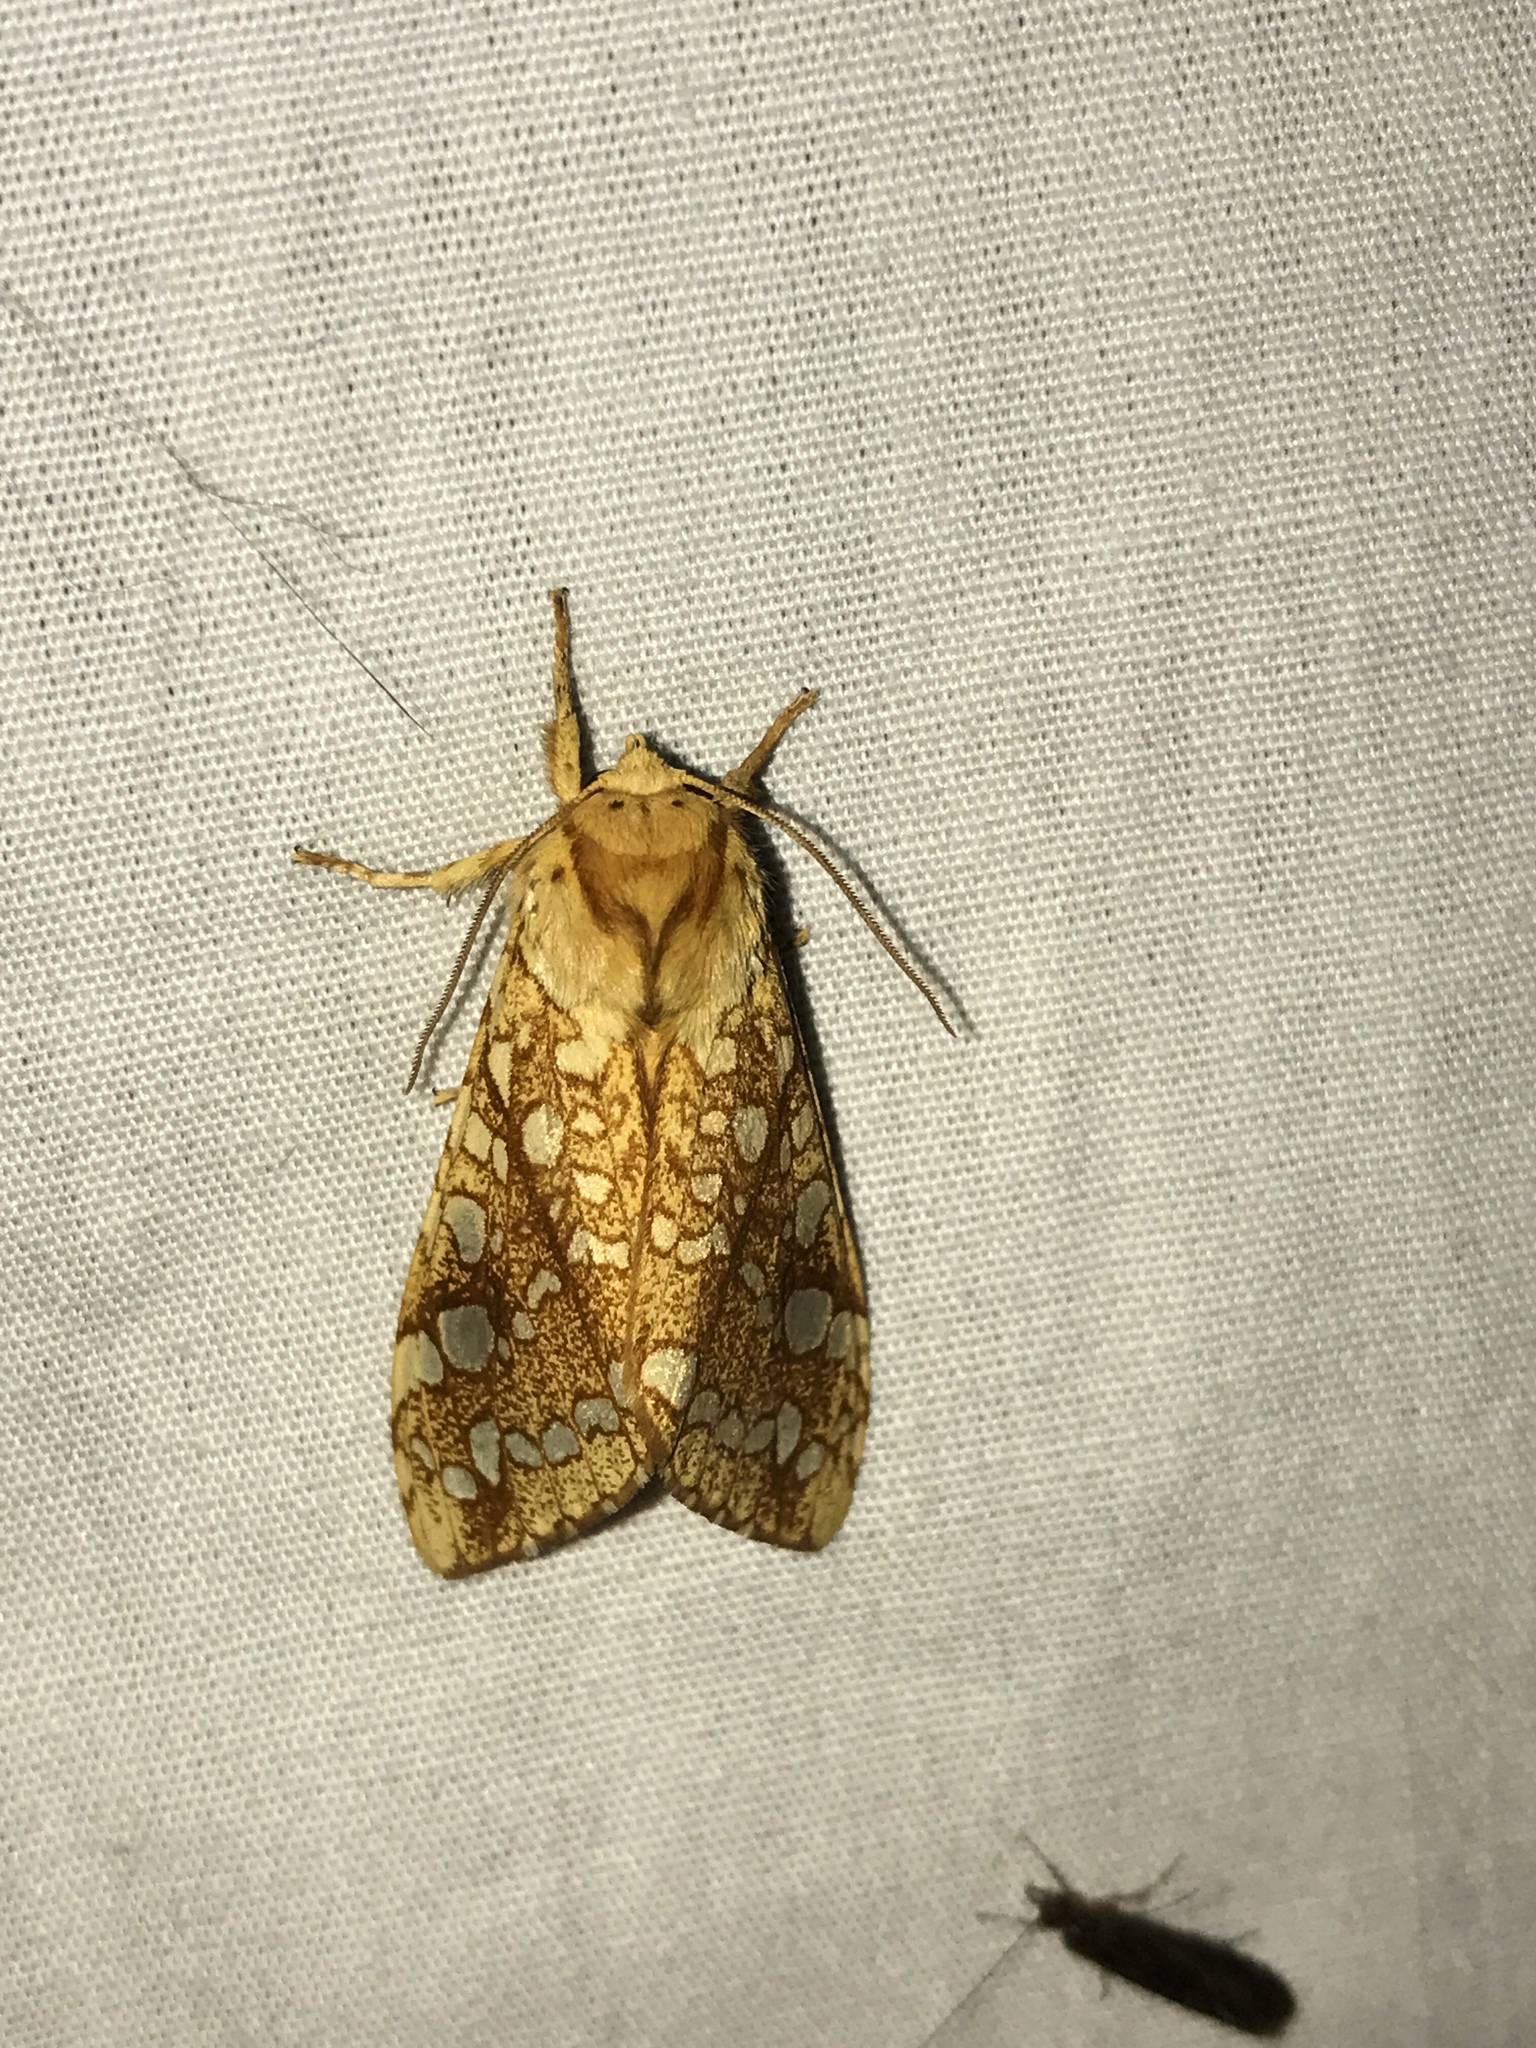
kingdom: Animalia
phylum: Arthropoda
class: Insecta
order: Lepidoptera
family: Erebidae
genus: Lophocampa
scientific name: Lophocampa caryae
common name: Hickory tussock moth
